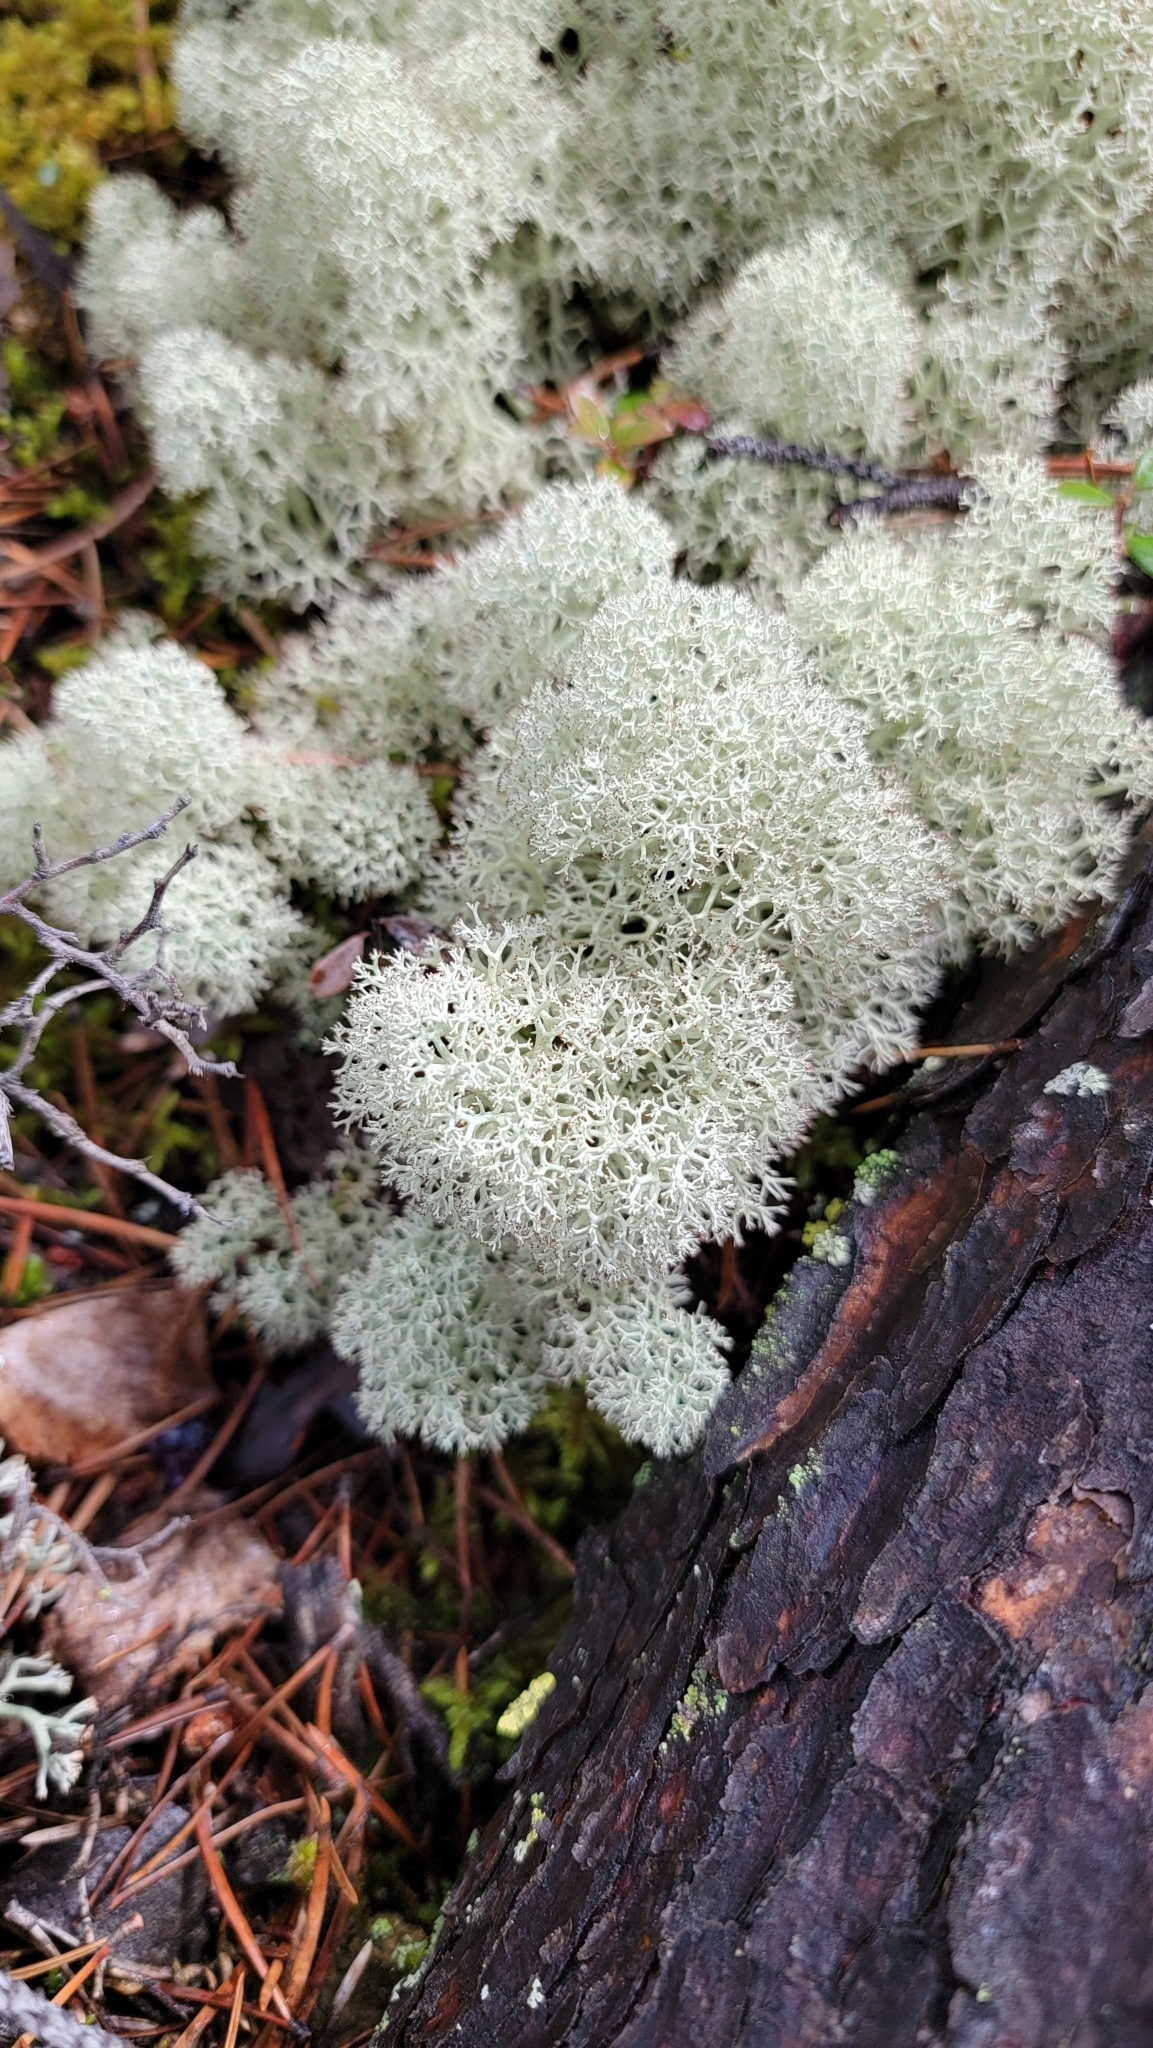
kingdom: Fungi
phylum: Ascomycota
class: Lecanoromycetes
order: Lecanorales
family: Cladoniaceae
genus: Cladonia
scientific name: Cladonia stellaris
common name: Star-tipped reindeer lichen
